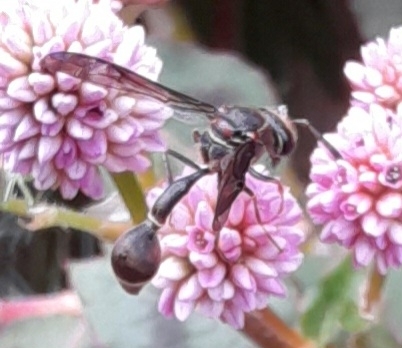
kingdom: Animalia
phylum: Arthropoda
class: Insecta
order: Hymenoptera
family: Vespidae
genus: Eumenes
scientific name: Eumenes
